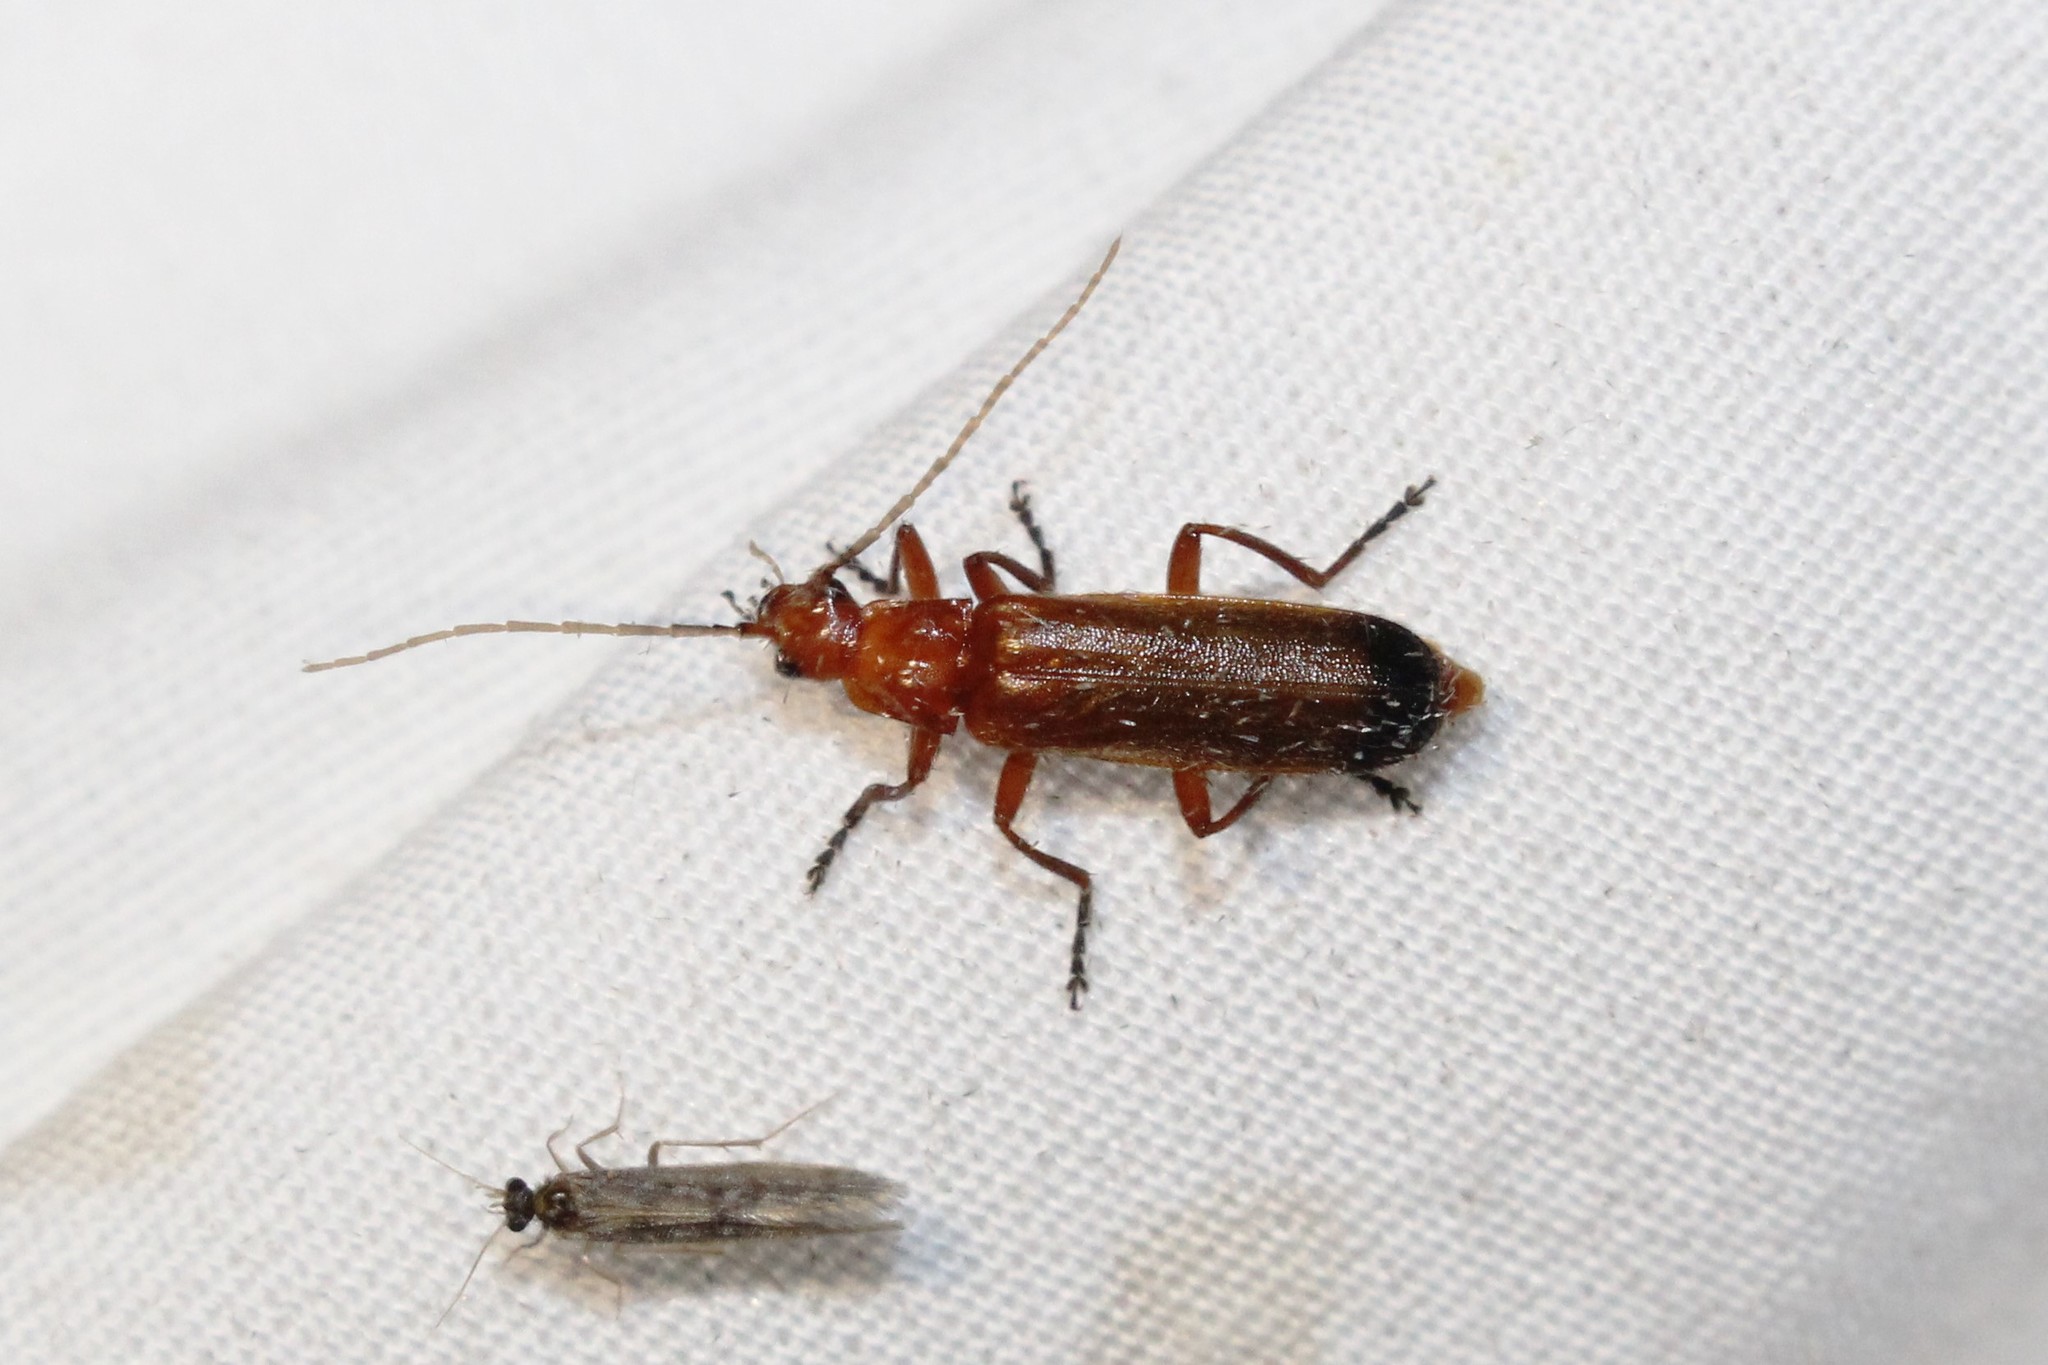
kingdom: Animalia
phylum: Arthropoda
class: Insecta
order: Coleoptera
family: Cantharidae
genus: Rhagonycha
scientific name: Rhagonycha fulva
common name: Common red soldier beetle
